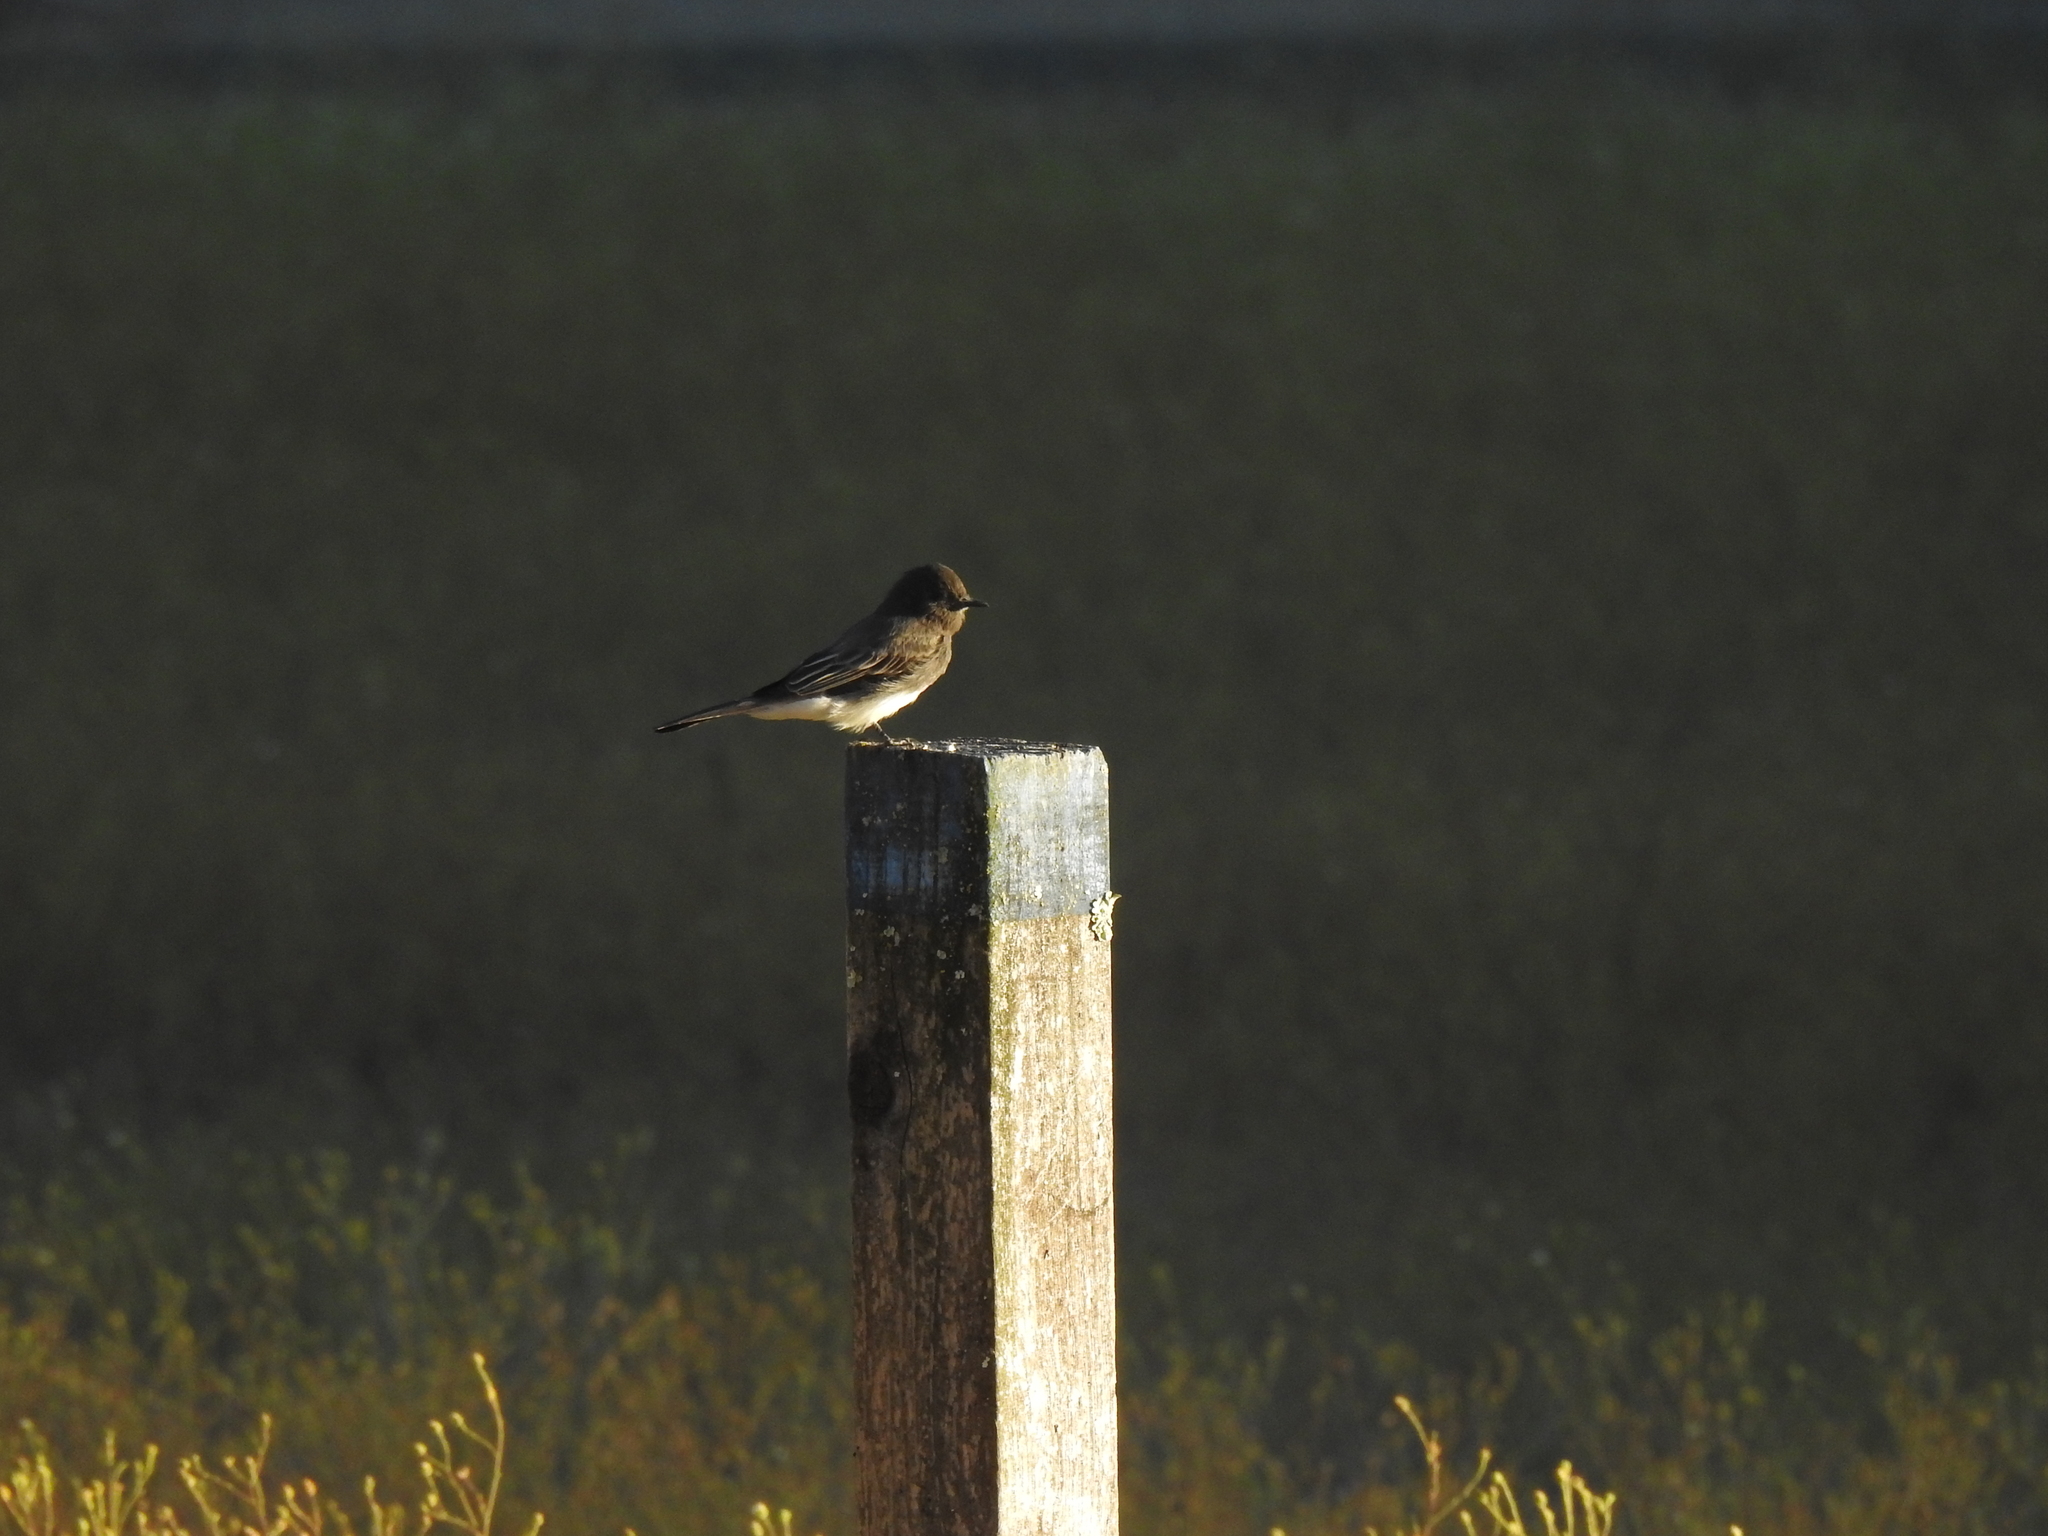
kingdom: Animalia
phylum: Chordata
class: Aves
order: Passeriformes
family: Tyrannidae
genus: Sayornis
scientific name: Sayornis nigricans
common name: Black phoebe
